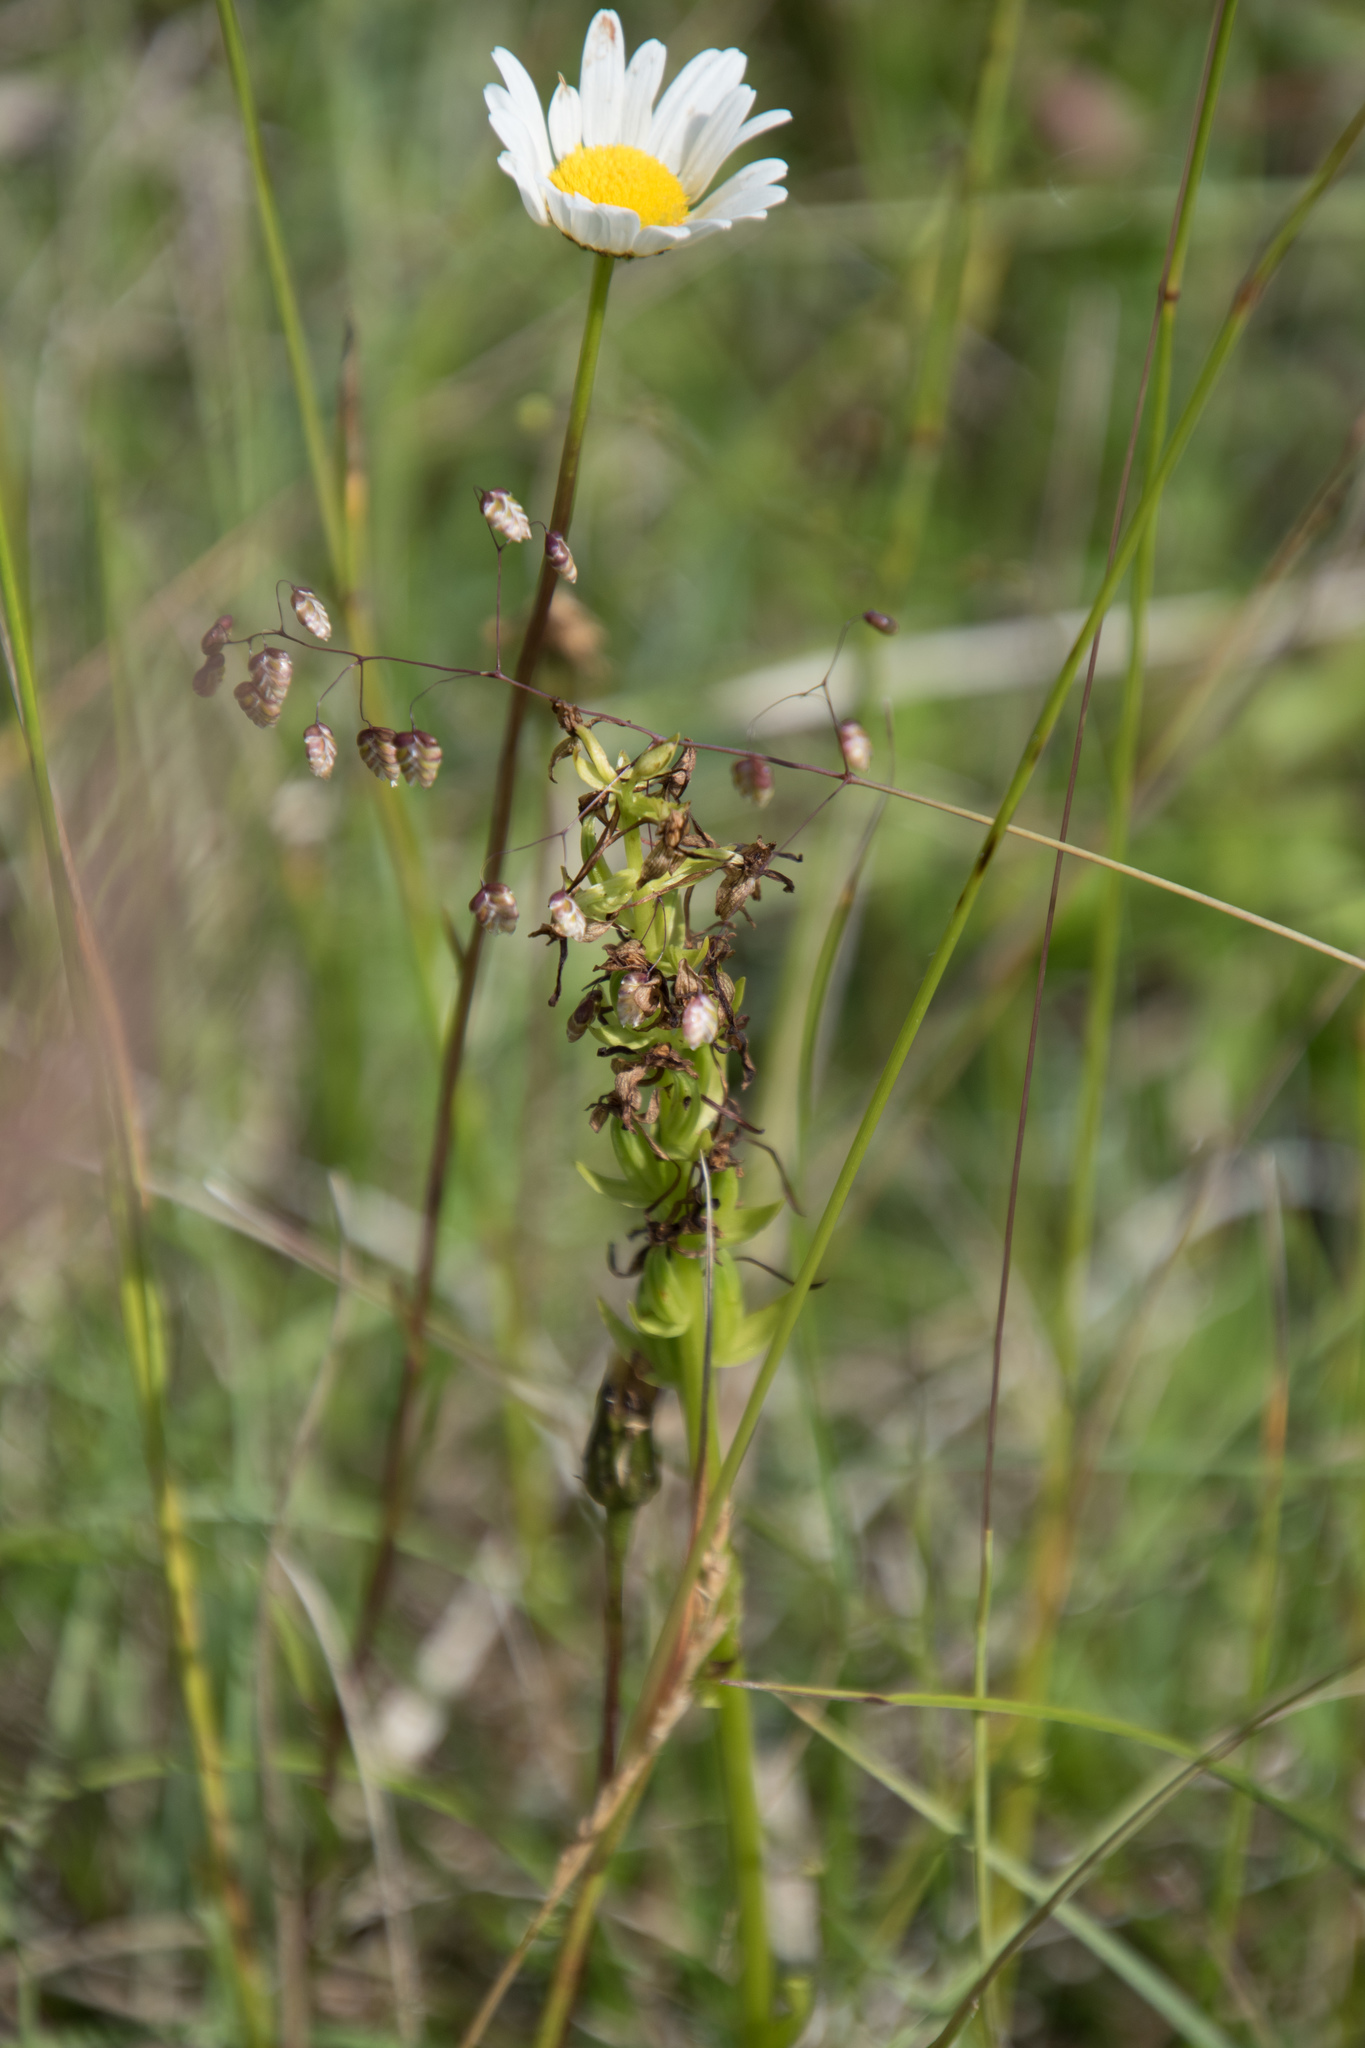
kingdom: Plantae
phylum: Tracheophyta
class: Liliopsida
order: Asparagales
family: Orchidaceae
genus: Platanthera
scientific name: Platanthera bifolia
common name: Lesser butterfly-orchid
